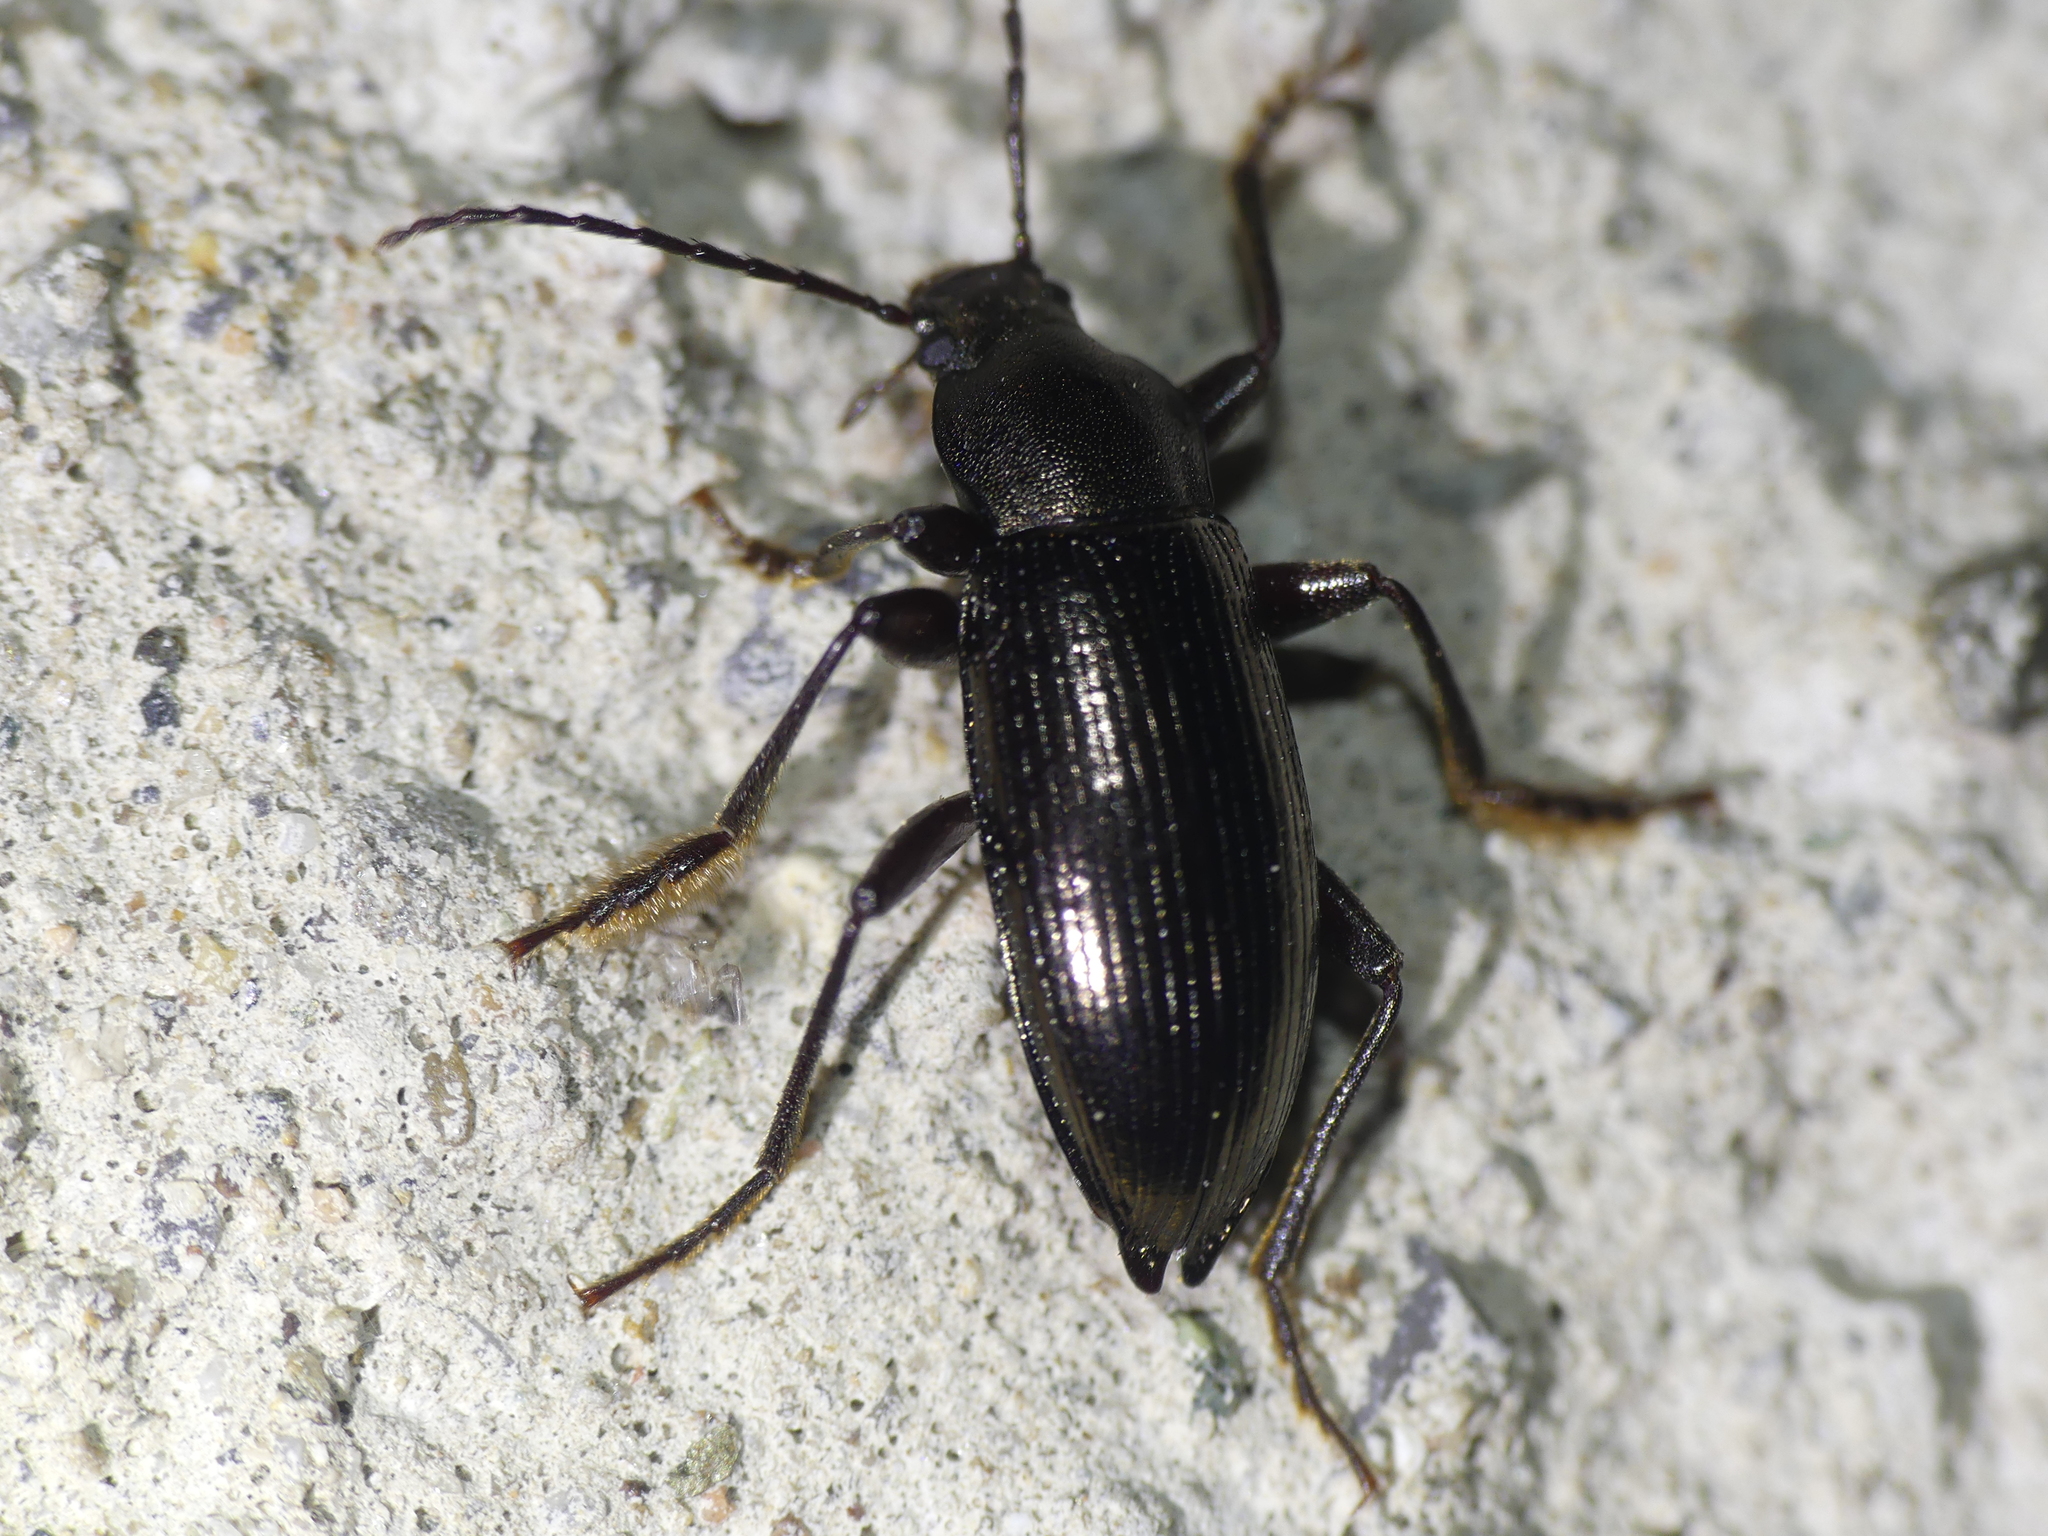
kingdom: Animalia
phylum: Arthropoda
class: Insecta
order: Coleoptera
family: Tenebrionidae
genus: Stenomax
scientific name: Stenomax aeneus
